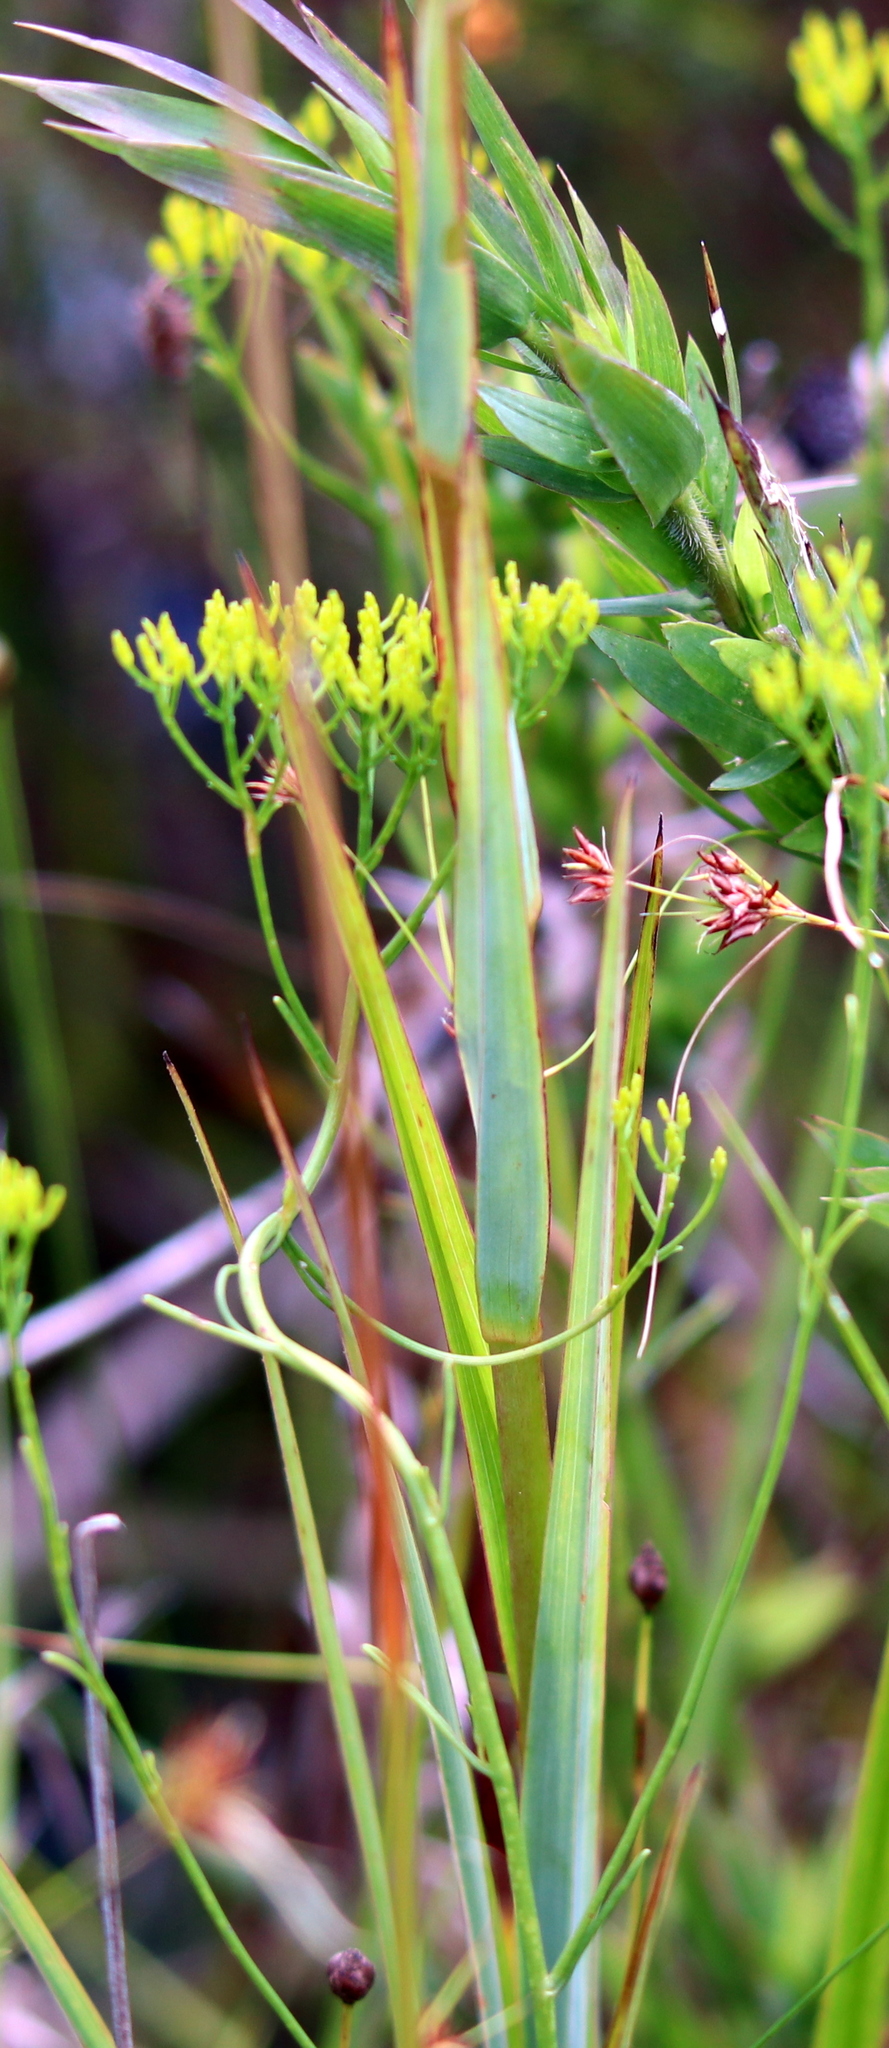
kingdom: Plantae
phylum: Tracheophyta
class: Liliopsida
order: Liliales
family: Melanthiaceae
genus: Zigadenus
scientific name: Zigadenus glaberrimus
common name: Sandbog death camas
